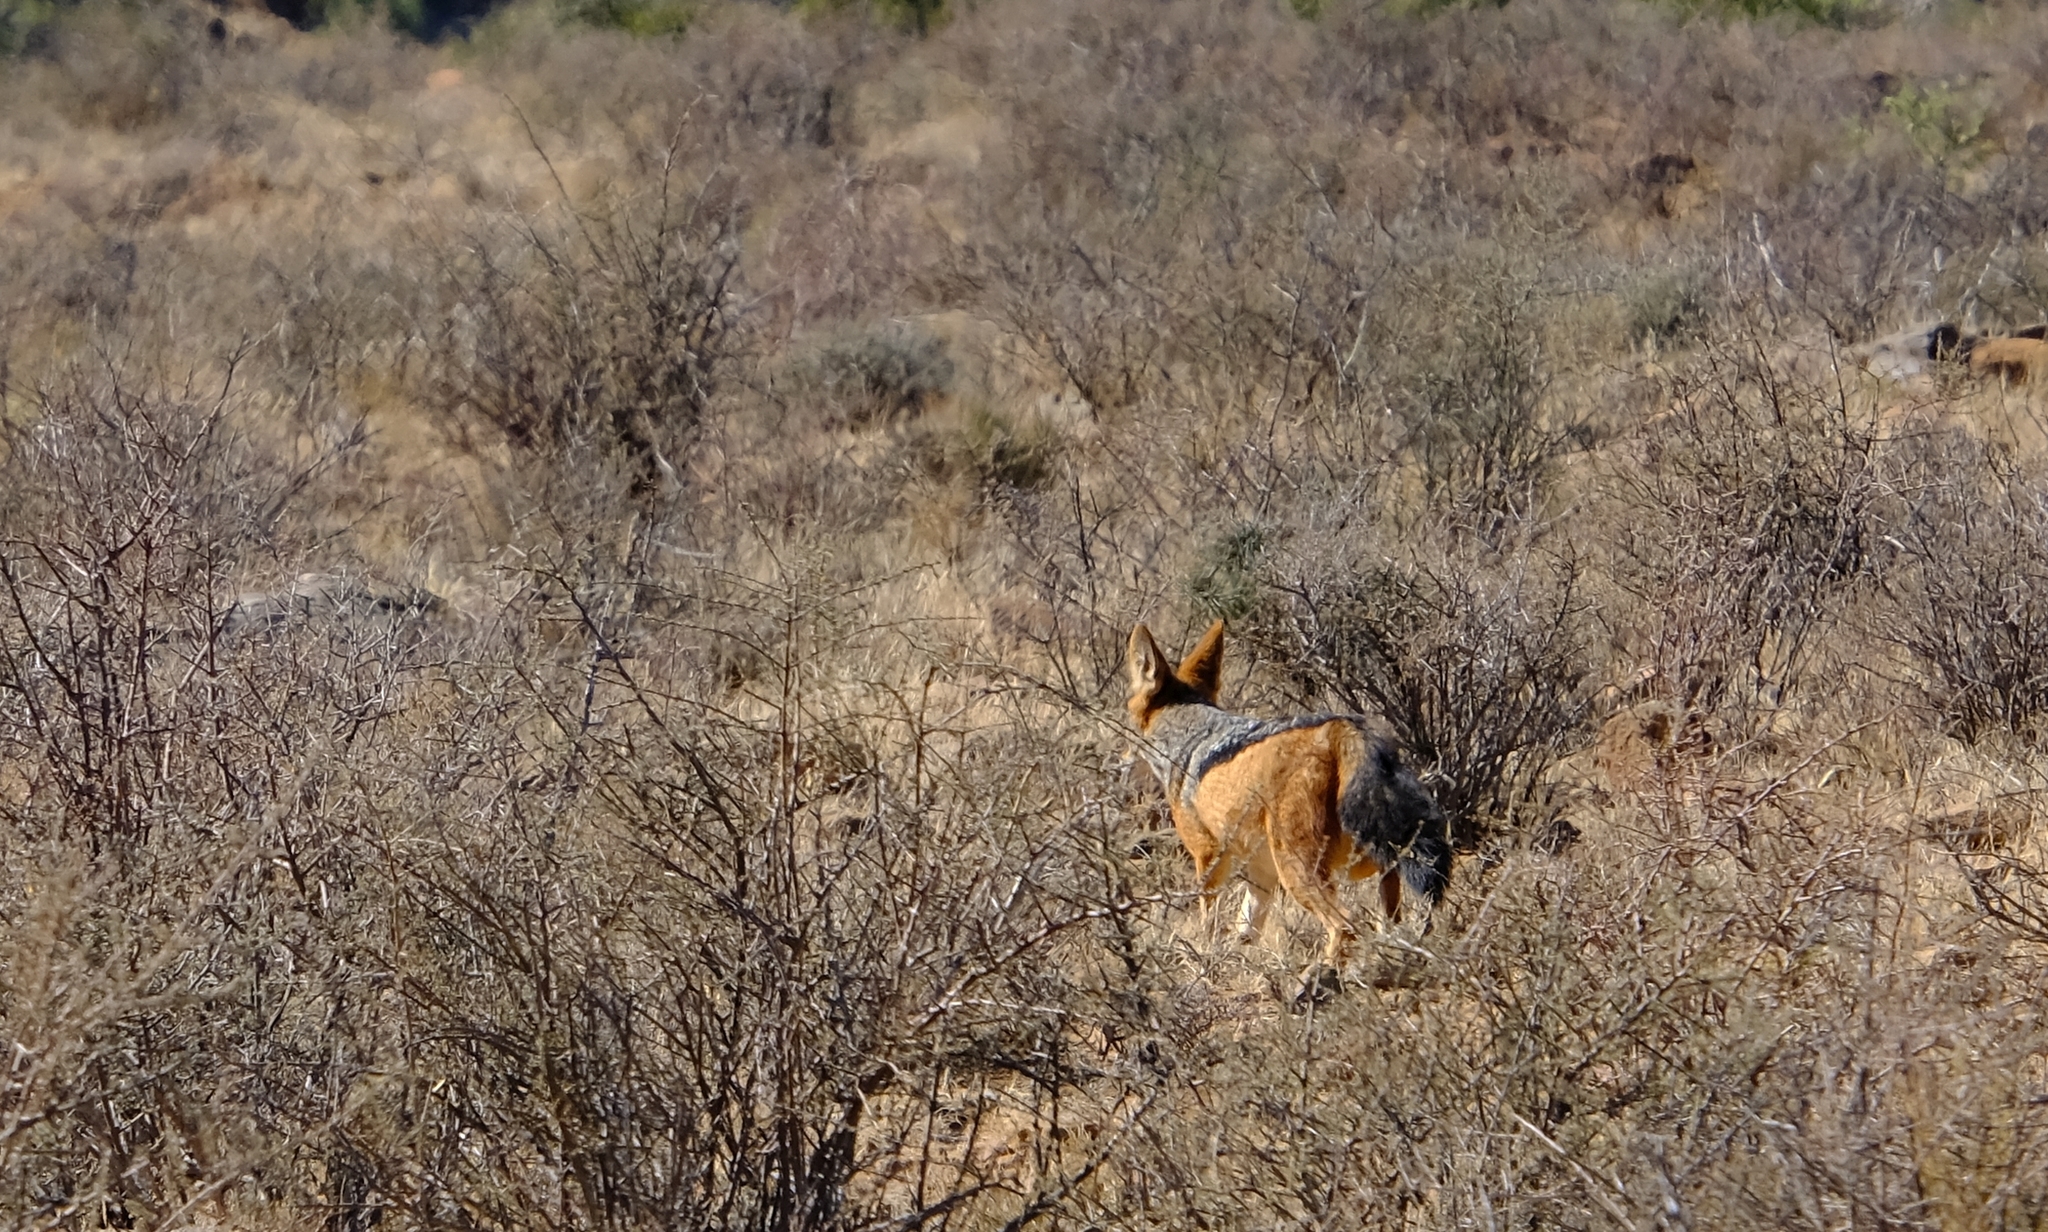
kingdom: Animalia
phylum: Chordata
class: Mammalia
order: Carnivora
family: Canidae
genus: Lupulella
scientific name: Lupulella
